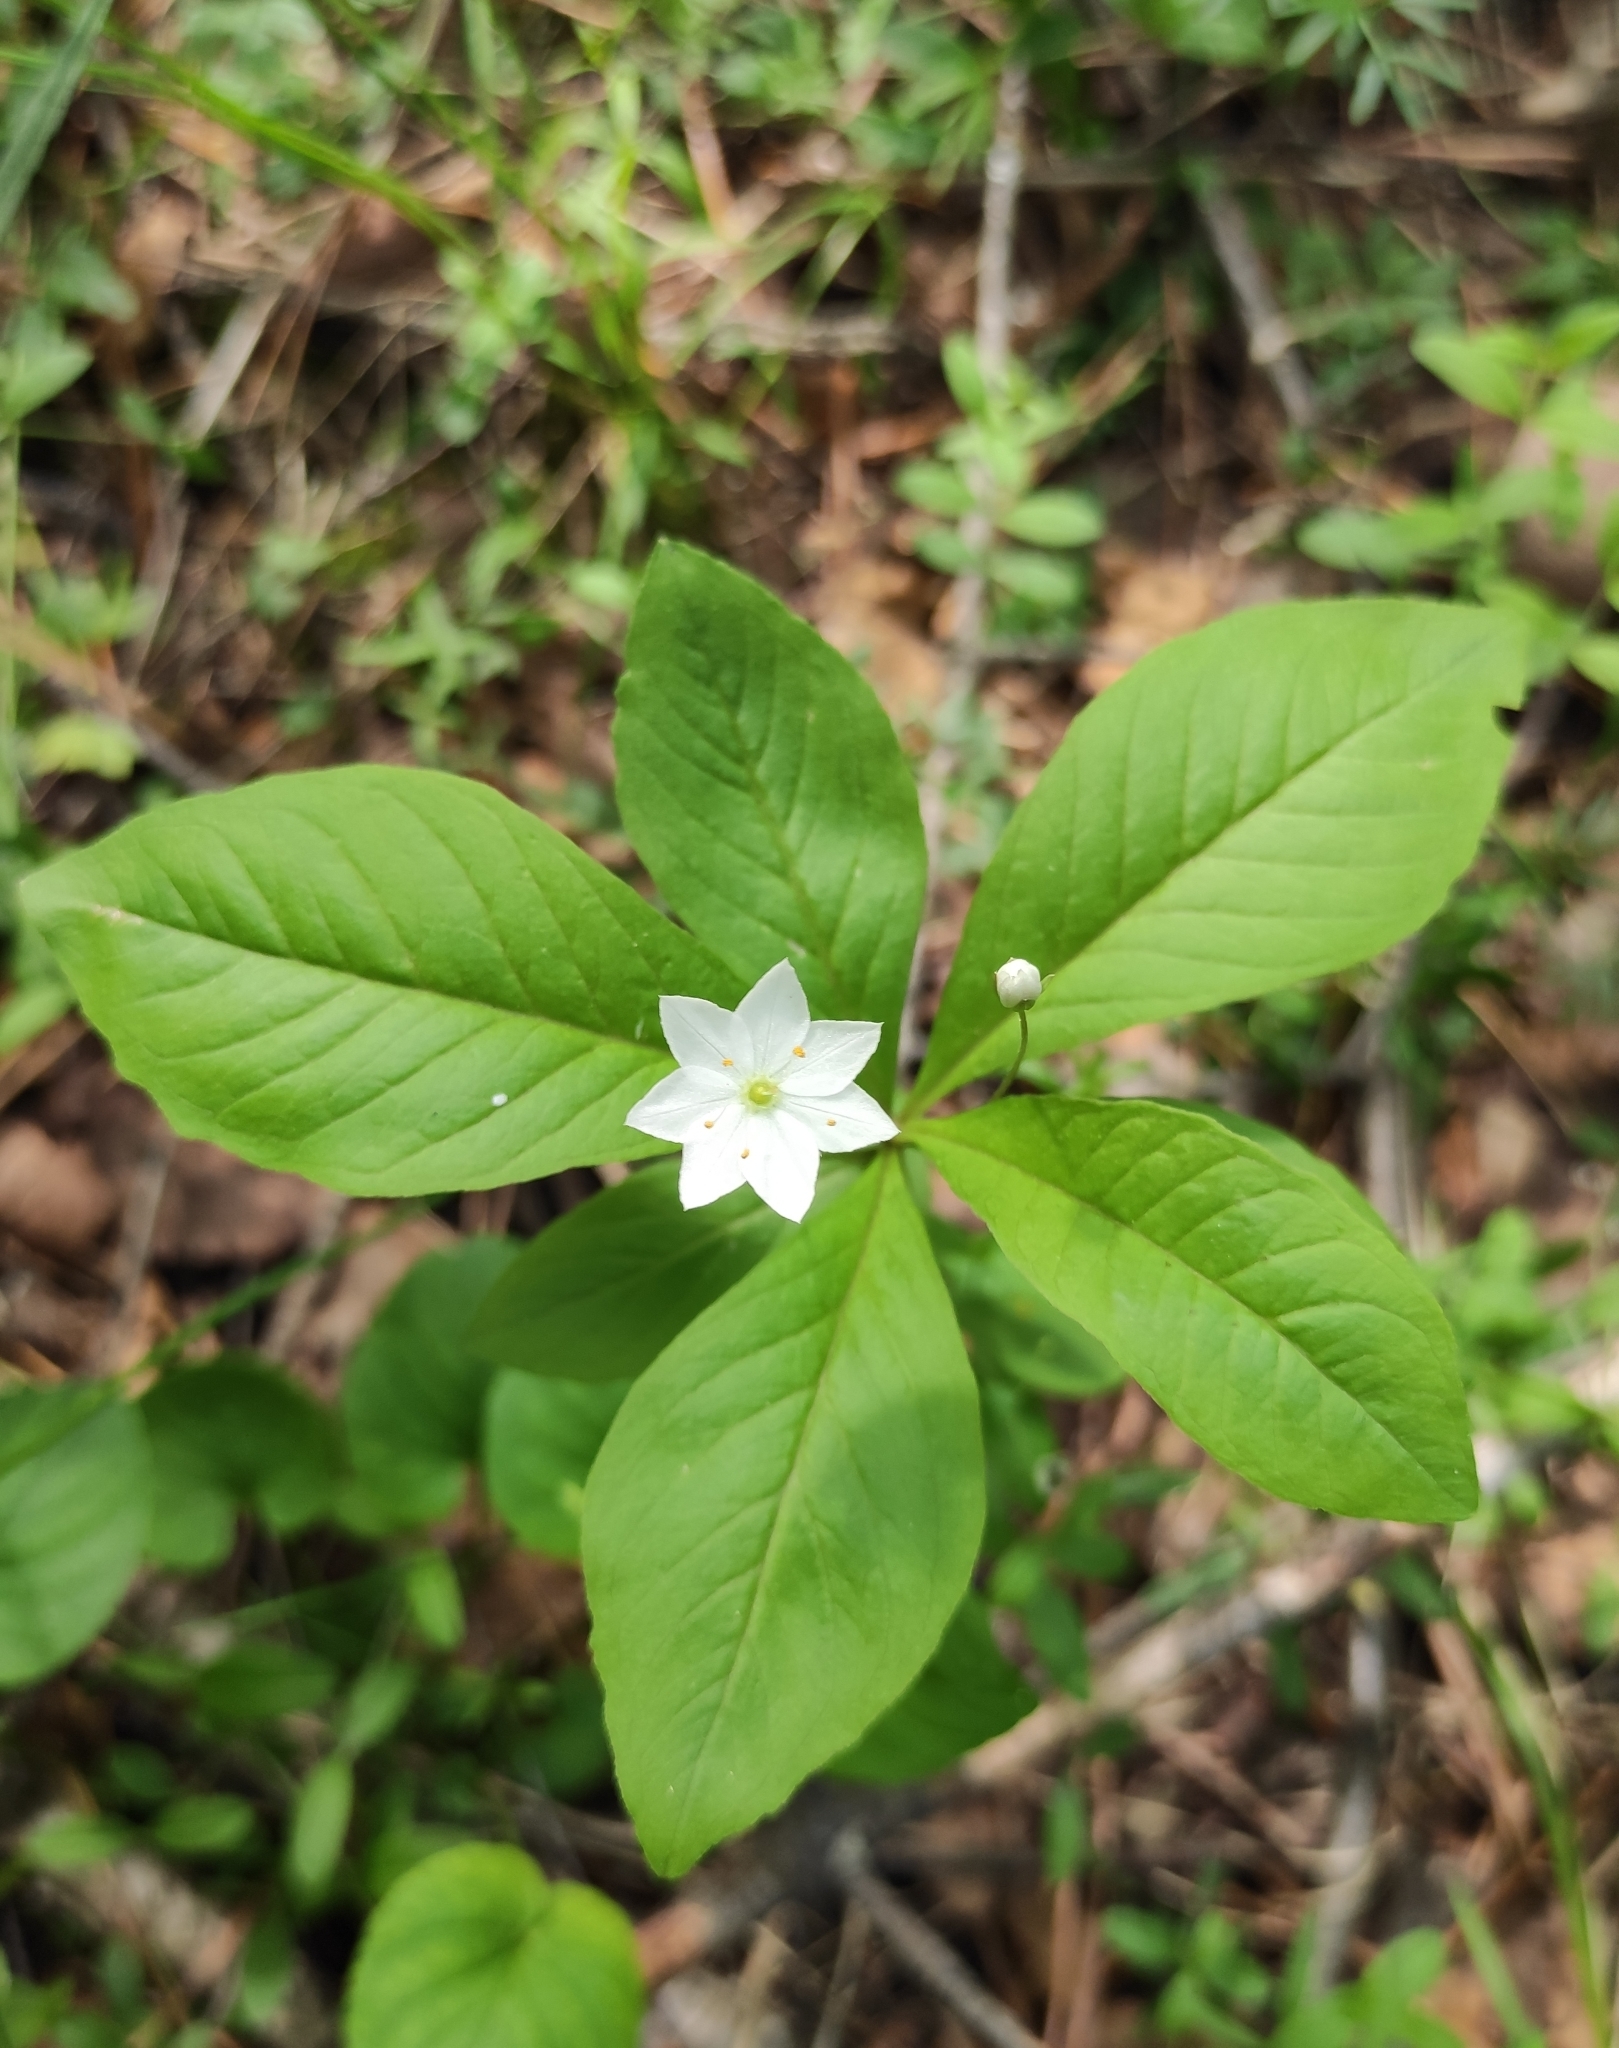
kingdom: Plantae
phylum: Tracheophyta
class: Magnoliopsida
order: Ericales
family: Primulaceae
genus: Lysimachia
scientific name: Lysimachia europaea
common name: Arctic starflower
